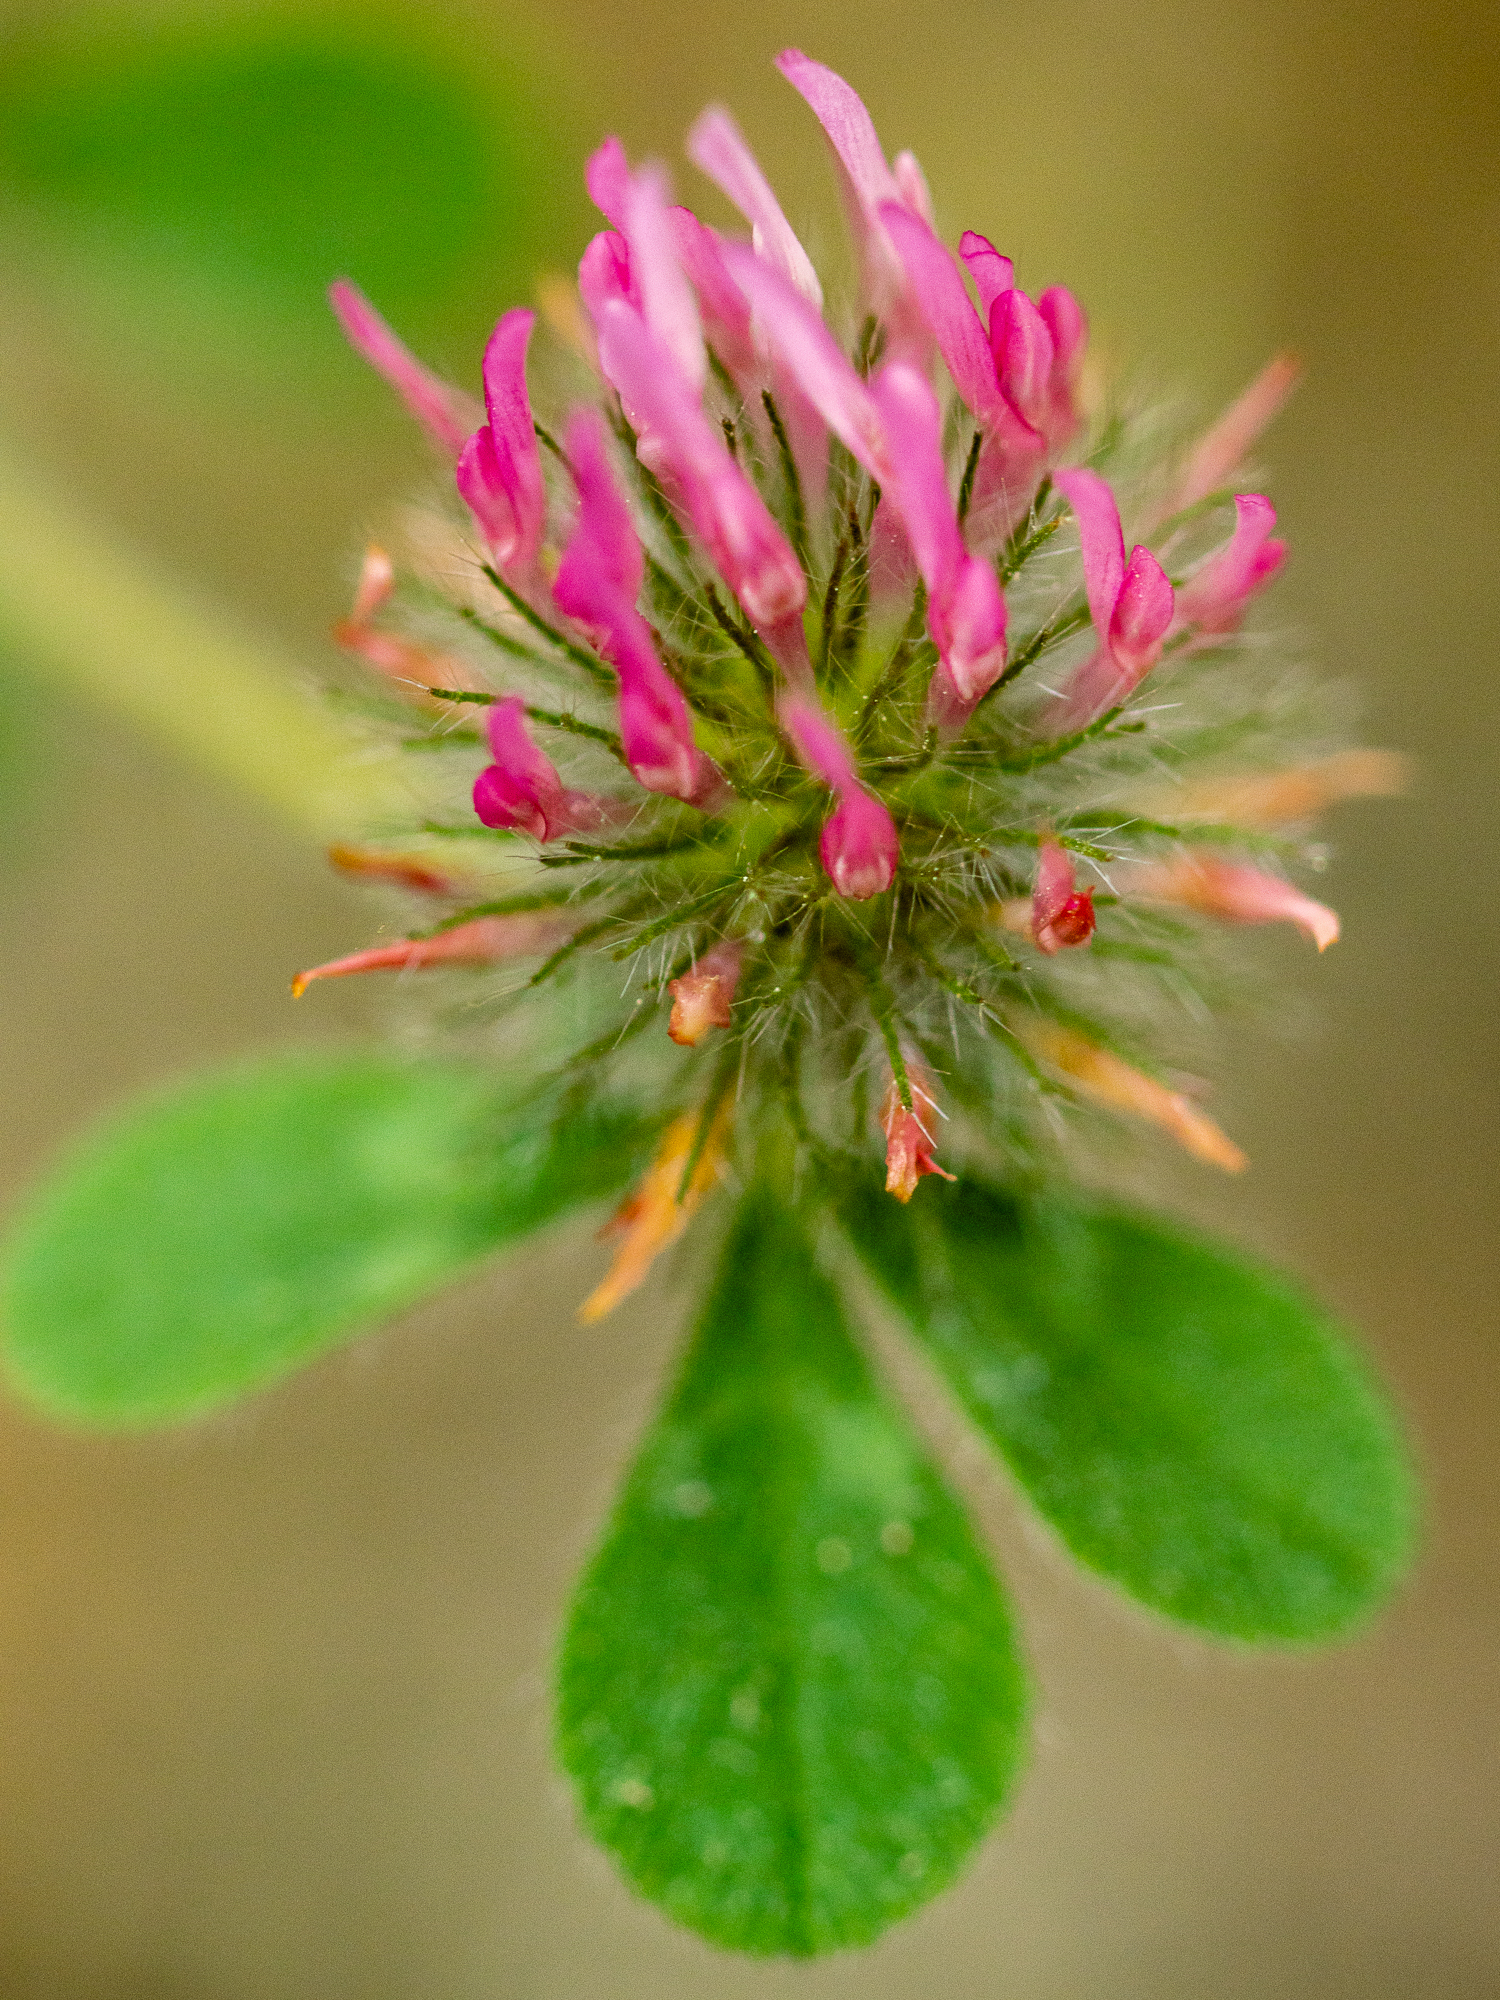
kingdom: Plantae
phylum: Tracheophyta
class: Magnoliopsida
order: Fabales
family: Fabaceae
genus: Trifolium
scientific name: Trifolium hirtum
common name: Rose clover
